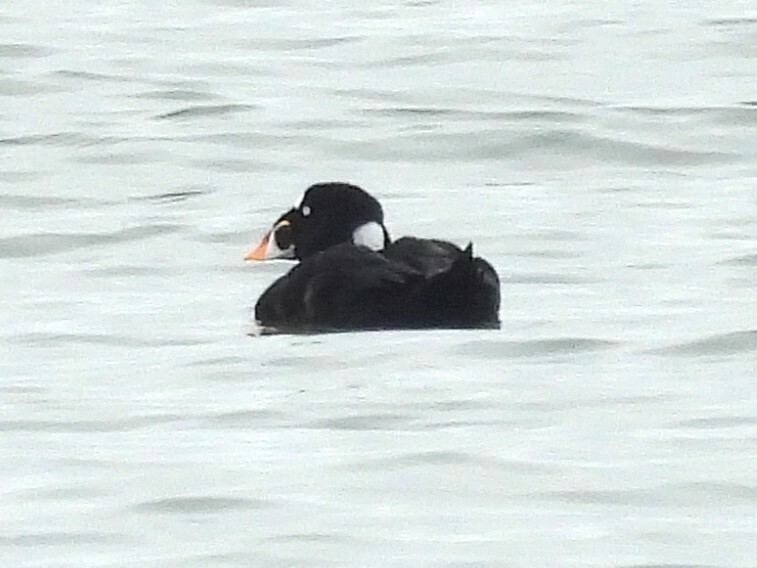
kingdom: Animalia
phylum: Chordata
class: Aves
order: Anseriformes
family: Anatidae
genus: Melanitta
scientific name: Melanitta perspicillata
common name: Surf scoter
